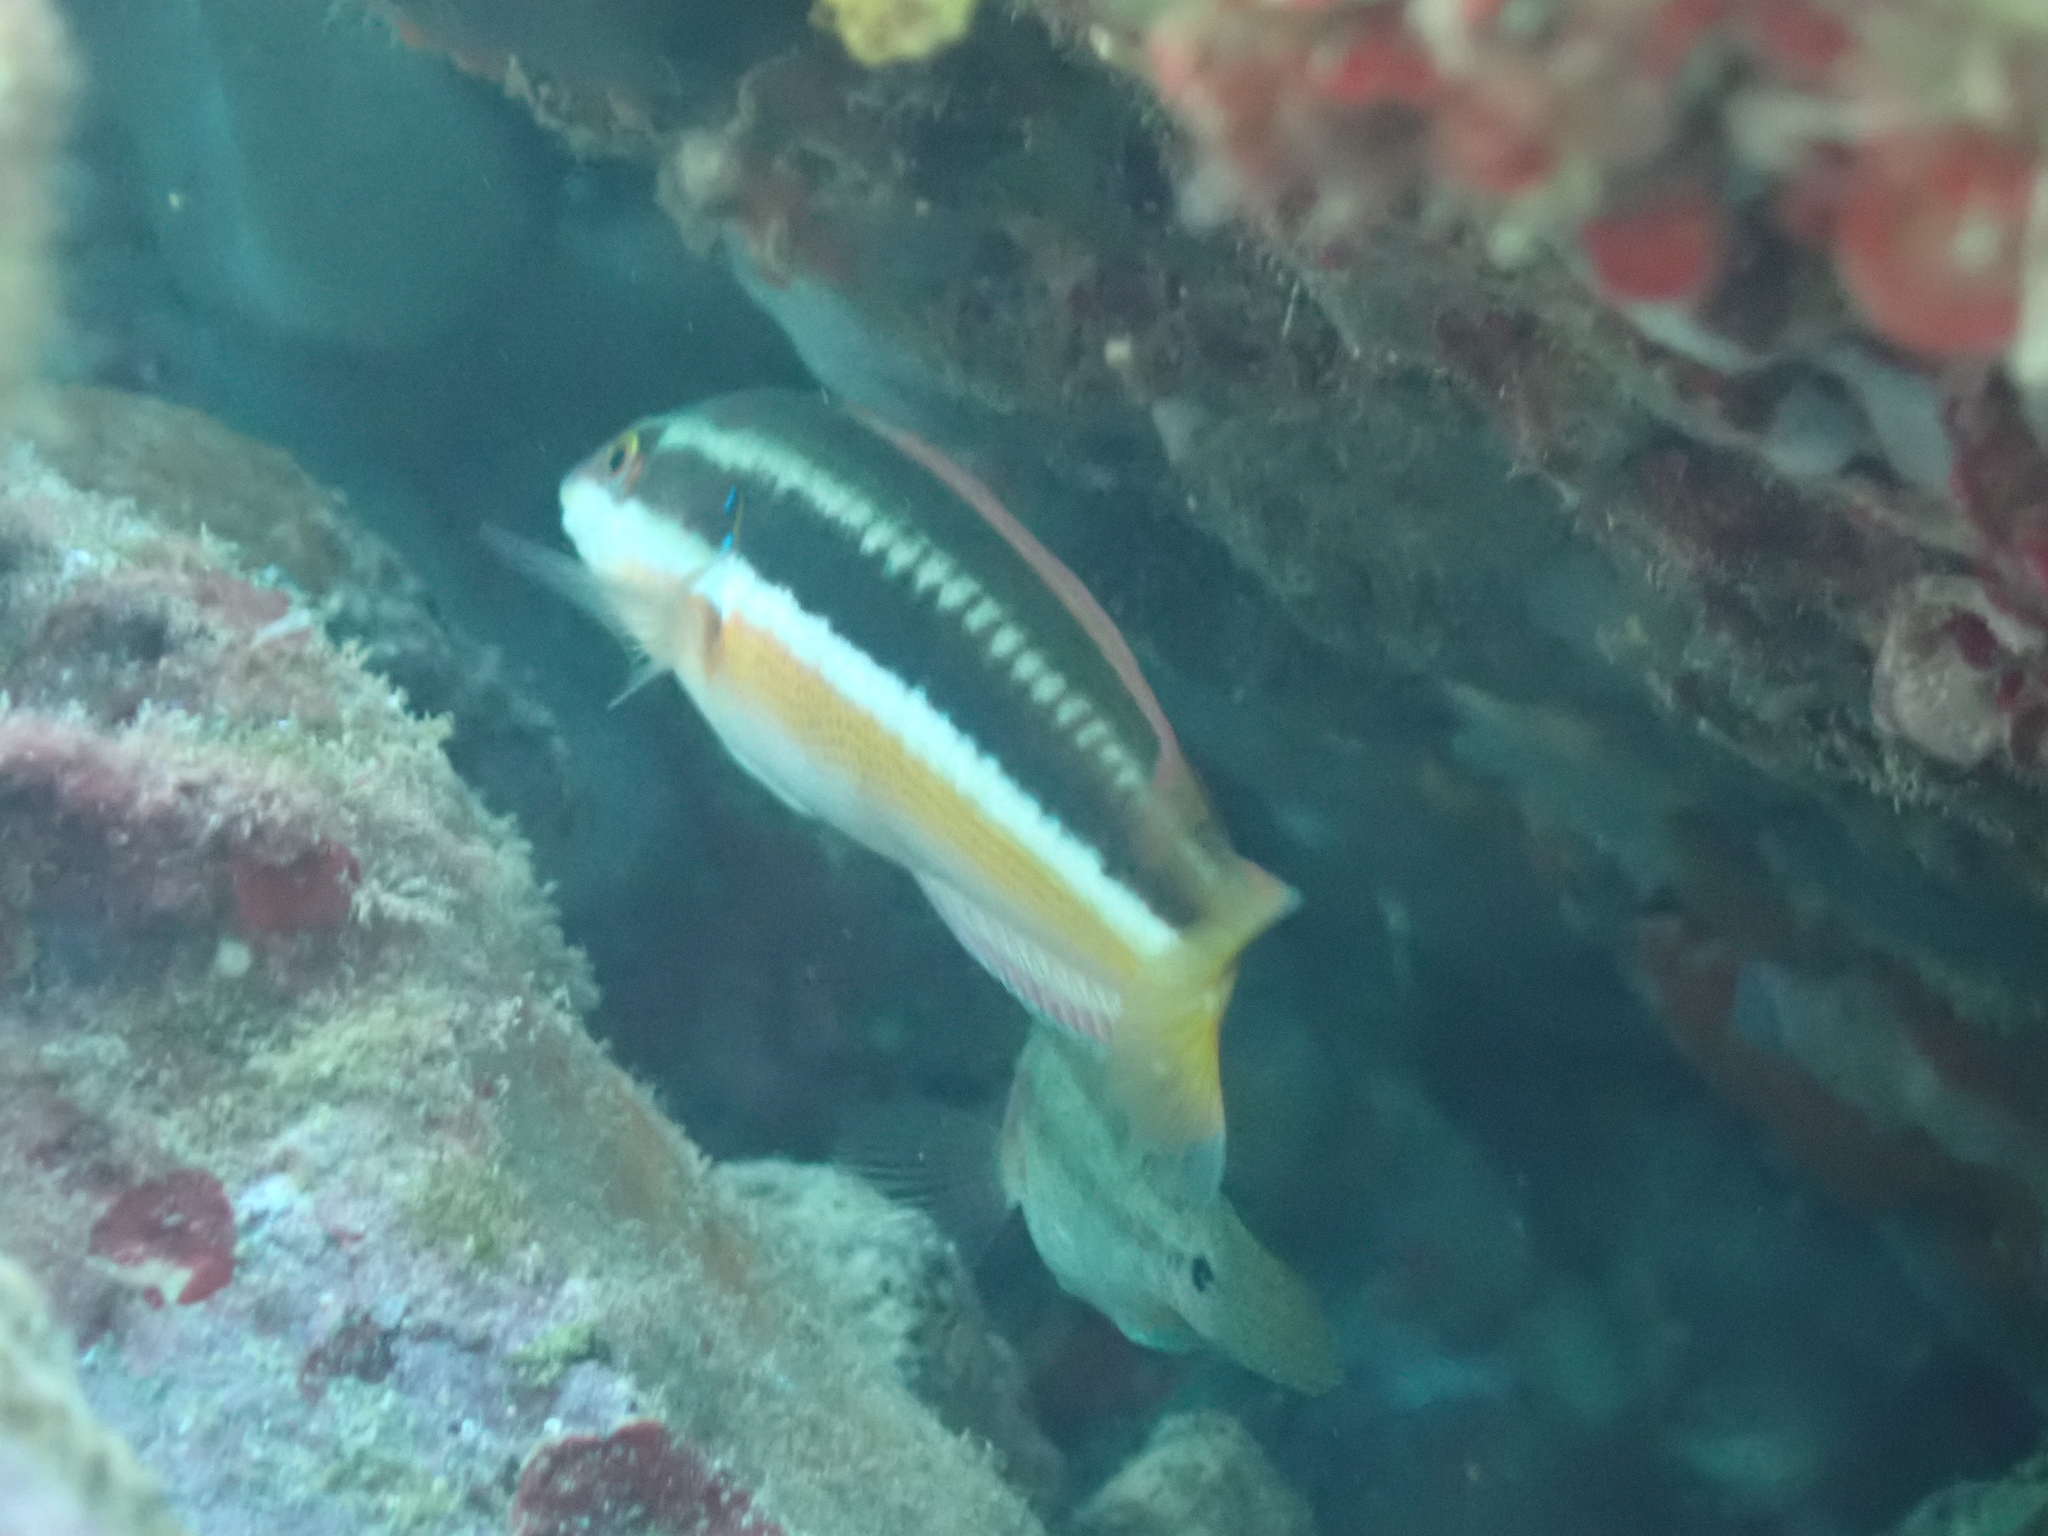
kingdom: Animalia
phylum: Chordata
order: Perciformes
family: Labridae
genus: Coris
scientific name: Coris julis
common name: Rainbow wrasse
